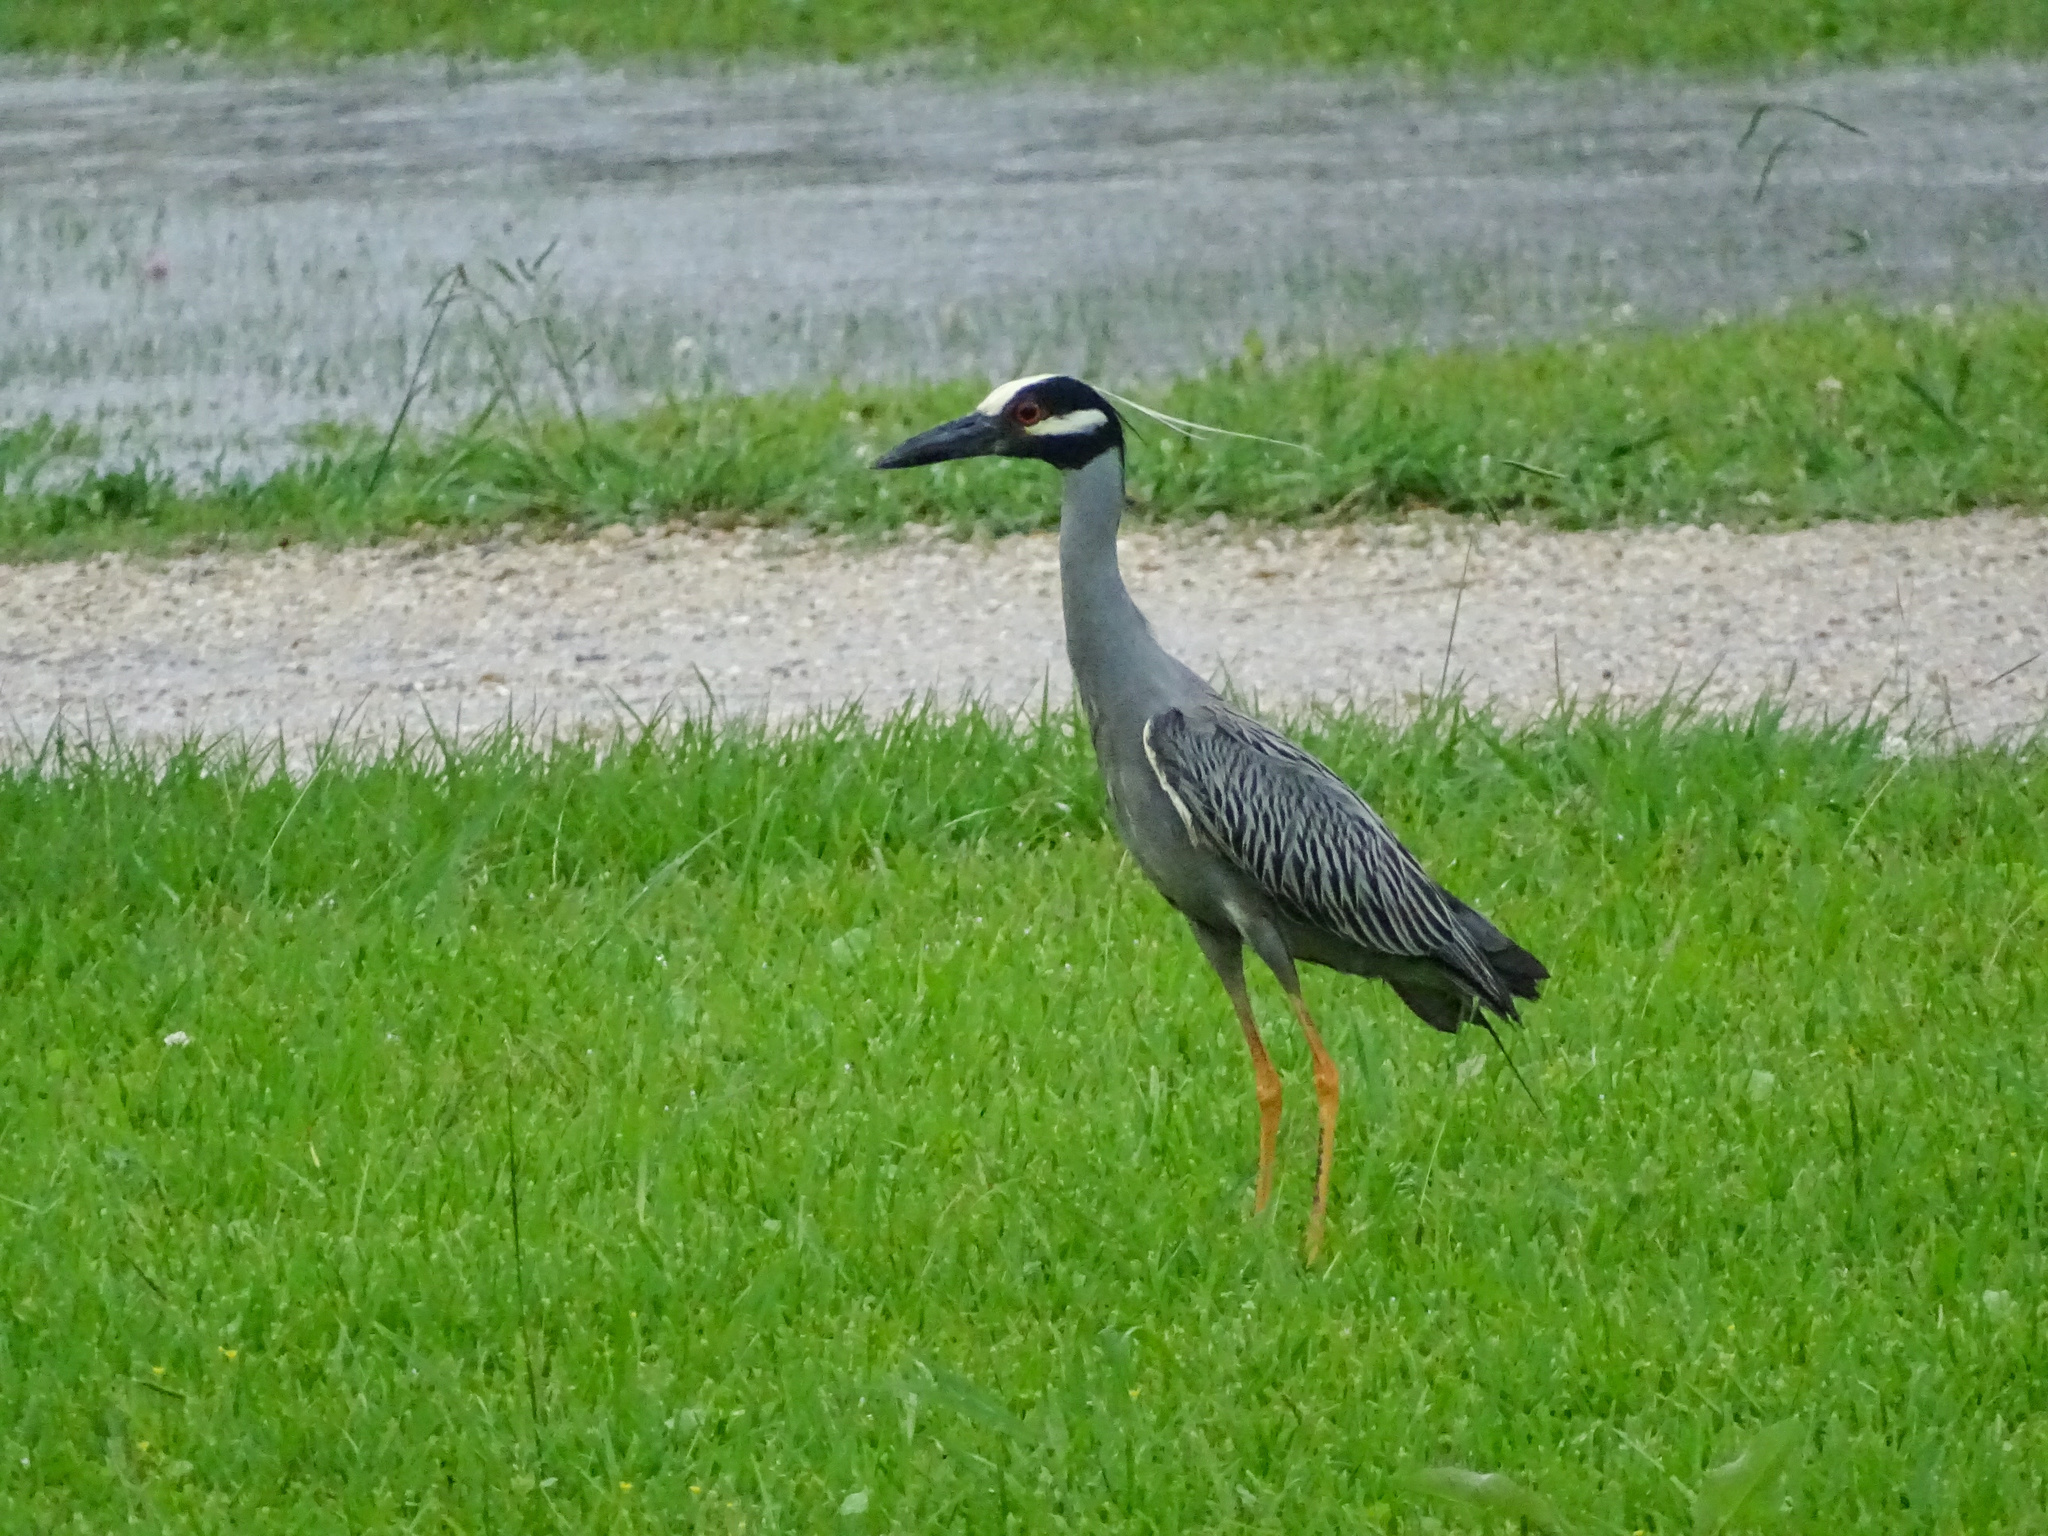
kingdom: Animalia
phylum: Chordata
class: Aves
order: Pelecaniformes
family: Ardeidae
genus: Nyctanassa
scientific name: Nyctanassa violacea
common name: Yellow-crowned night heron
